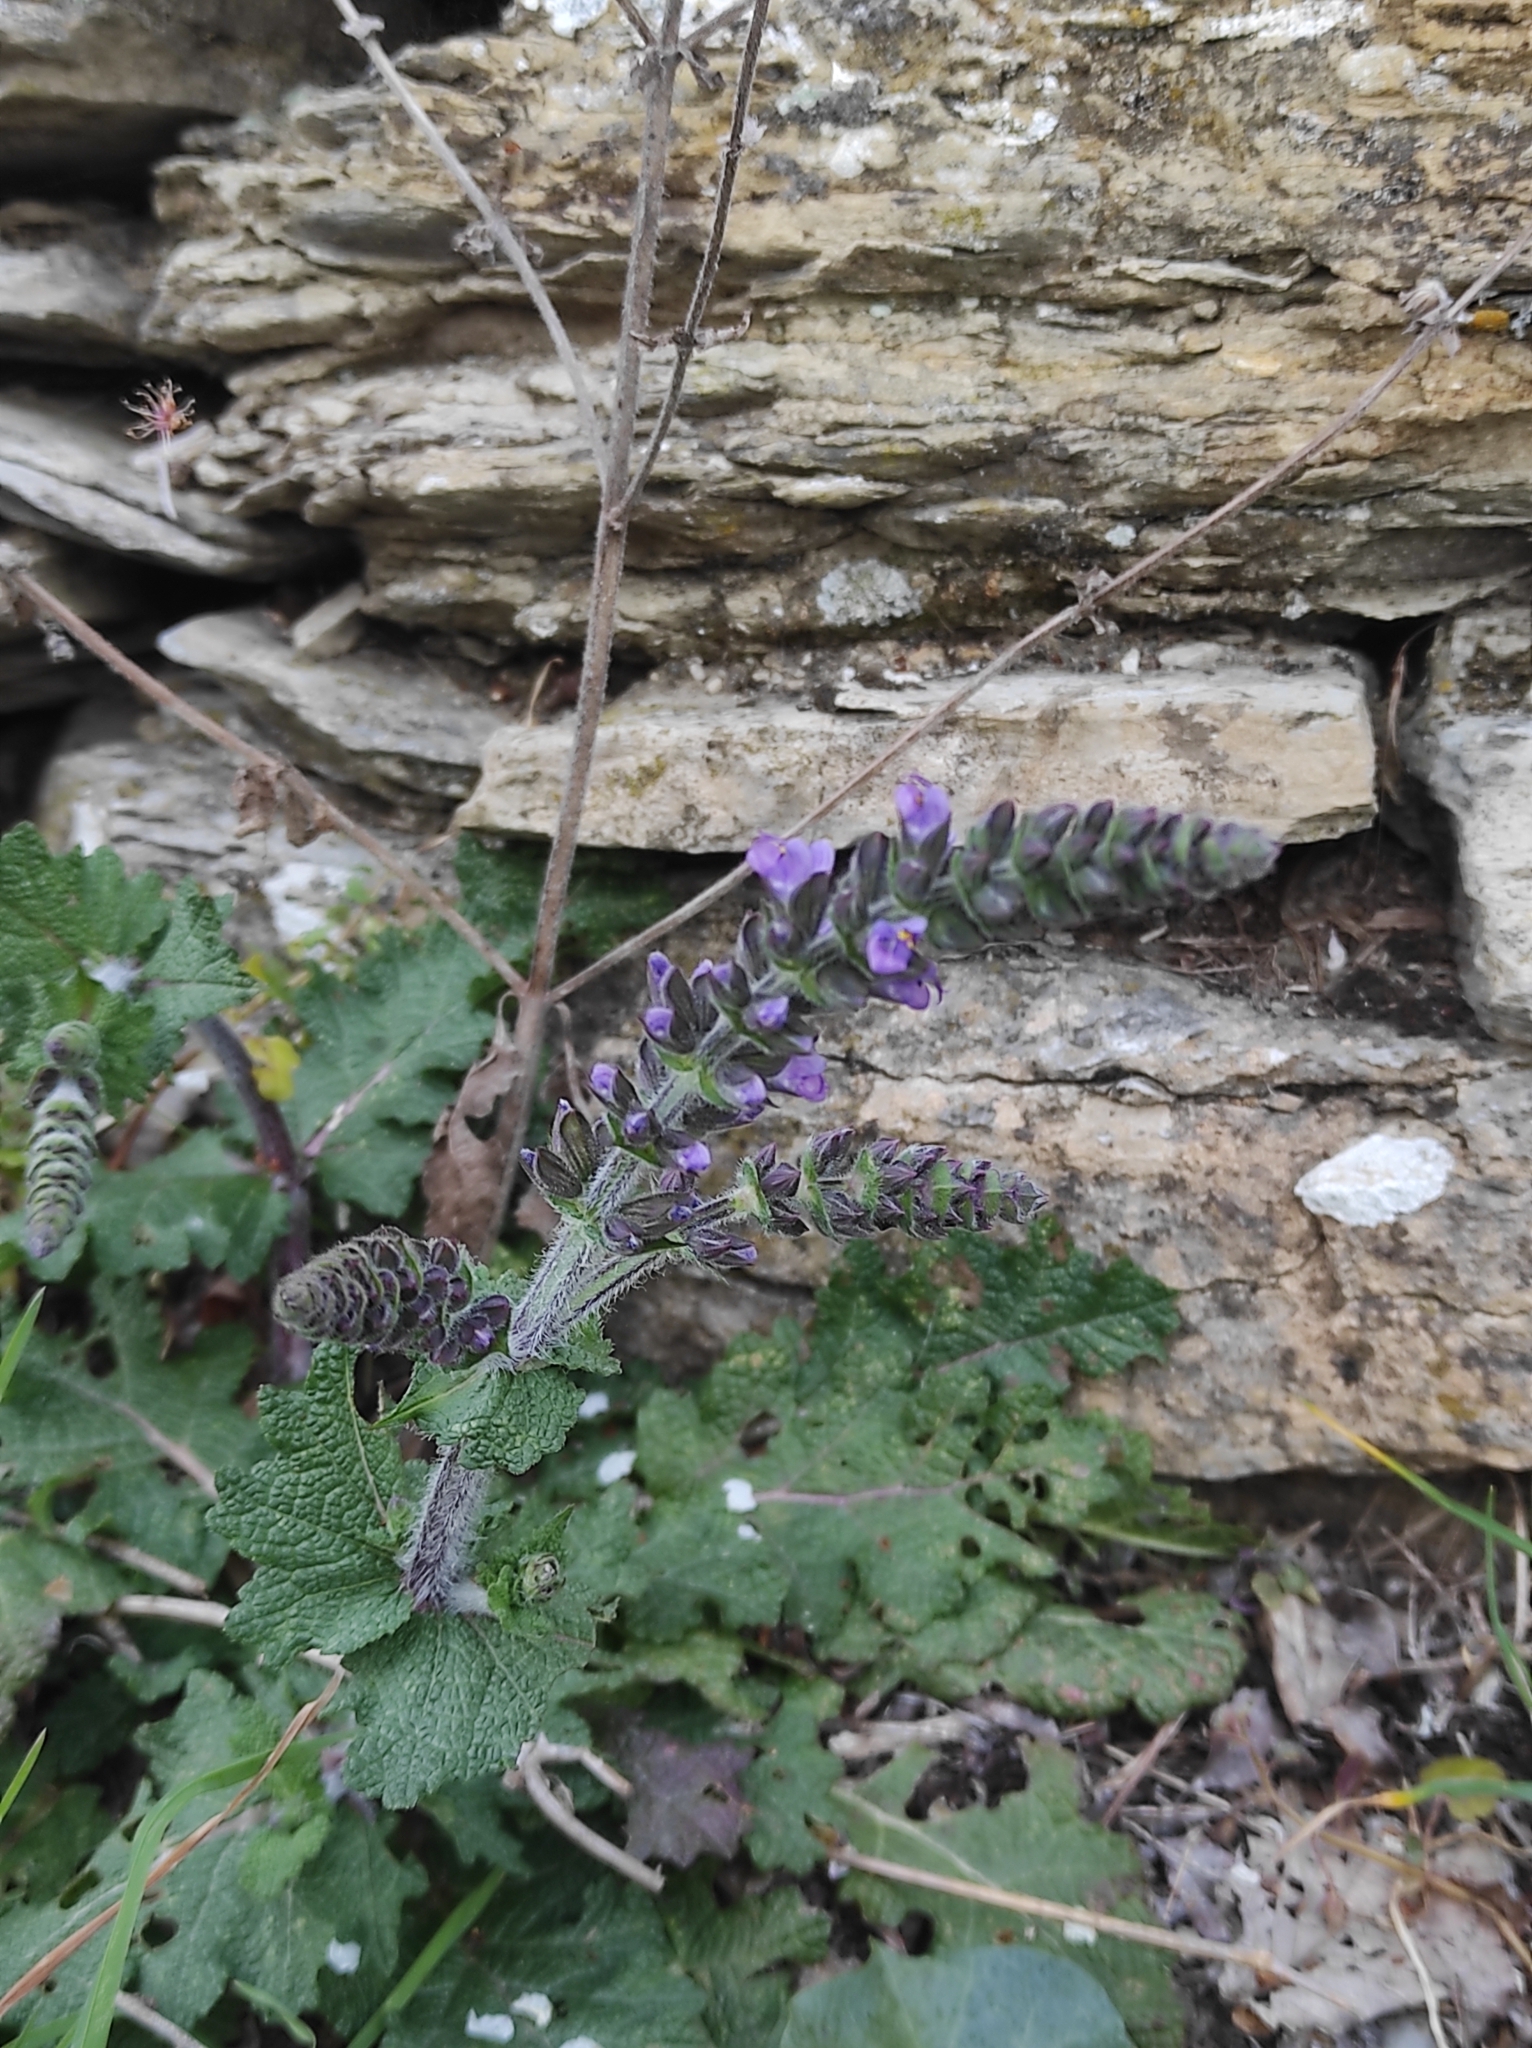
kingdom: Plantae
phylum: Tracheophyta
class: Magnoliopsida
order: Lamiales
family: Lamiaceae
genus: Salvia
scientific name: Salvia verbenaca
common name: Wild clary
